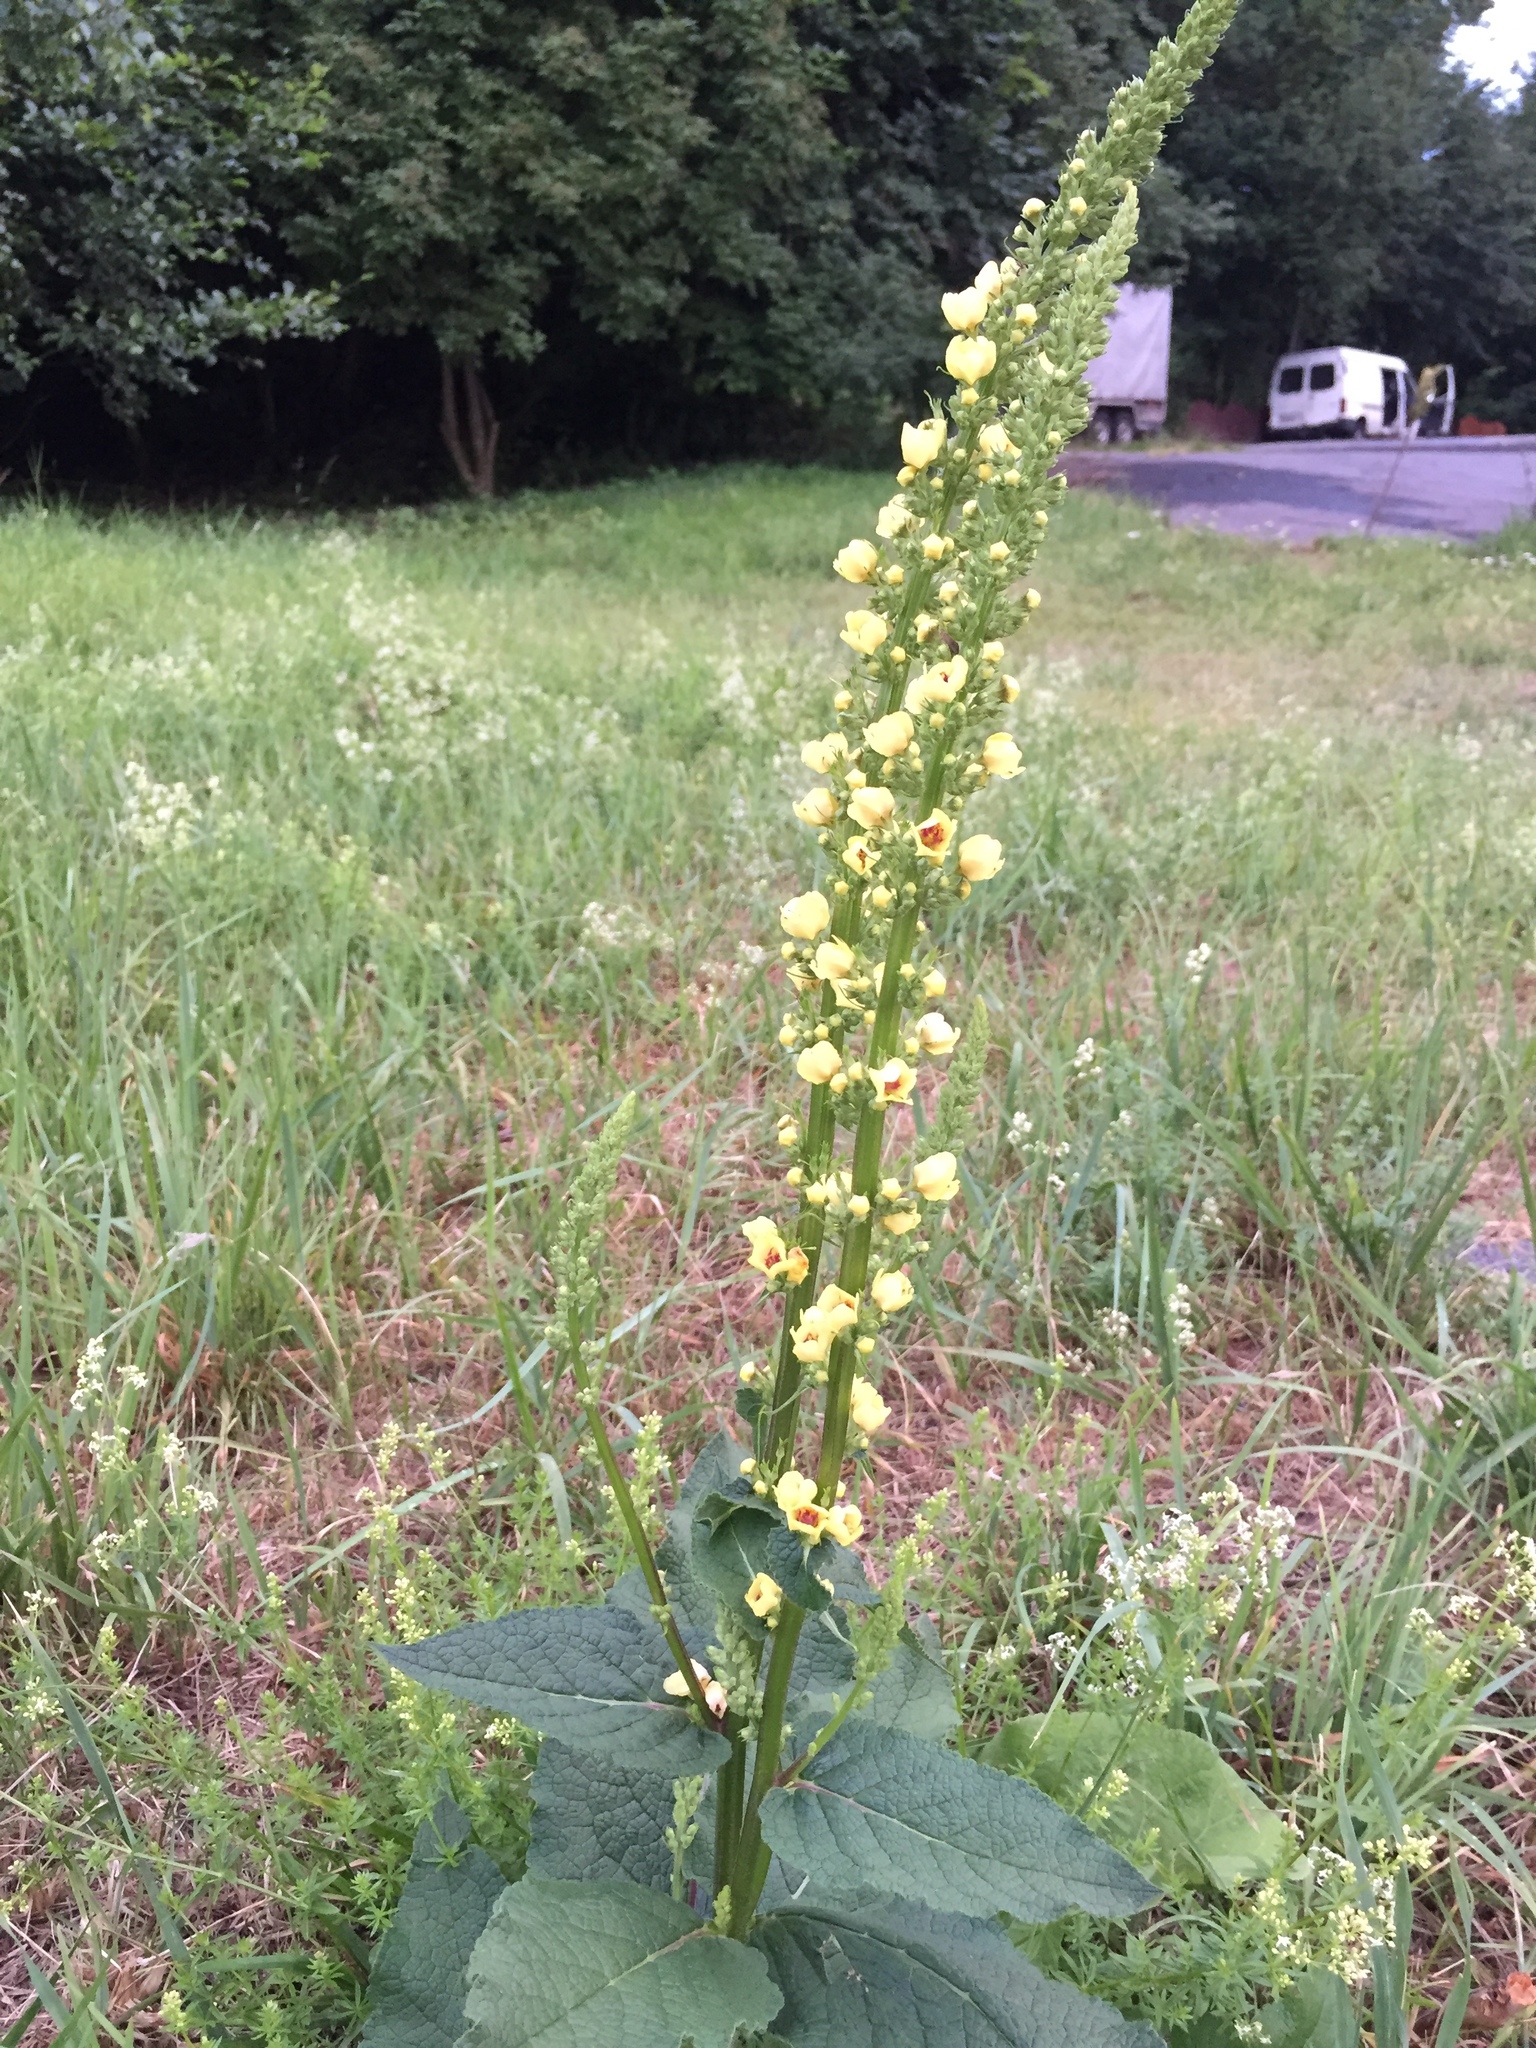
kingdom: Plantae
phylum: Tracheophyta
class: Magnoliopsida
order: Lamiales
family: Scrophulariaceae
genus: Verbascum
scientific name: Verbascum nigrum
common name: Dark mullein
